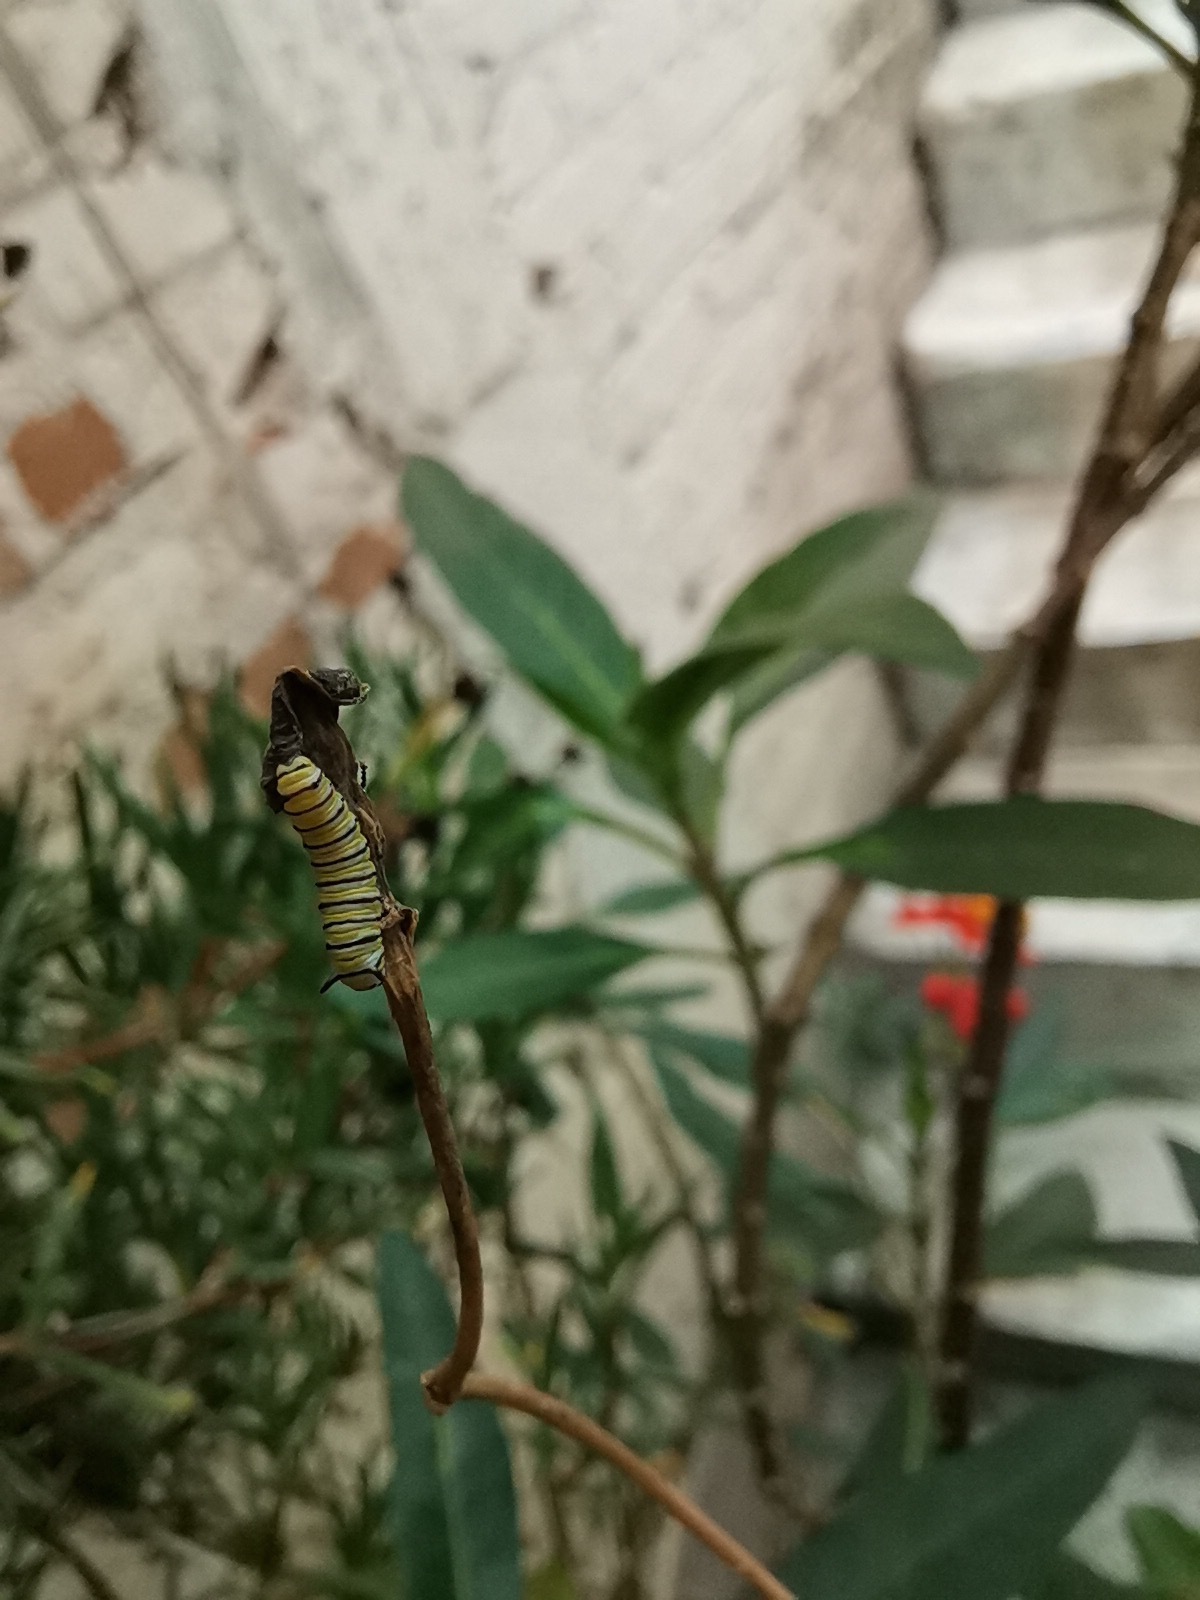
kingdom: Animalia
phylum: Arthropoda
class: Insecta
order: Lepidoptera
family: Nymphalidae
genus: Danaus
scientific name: Danaus plexippus
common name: Monarch
